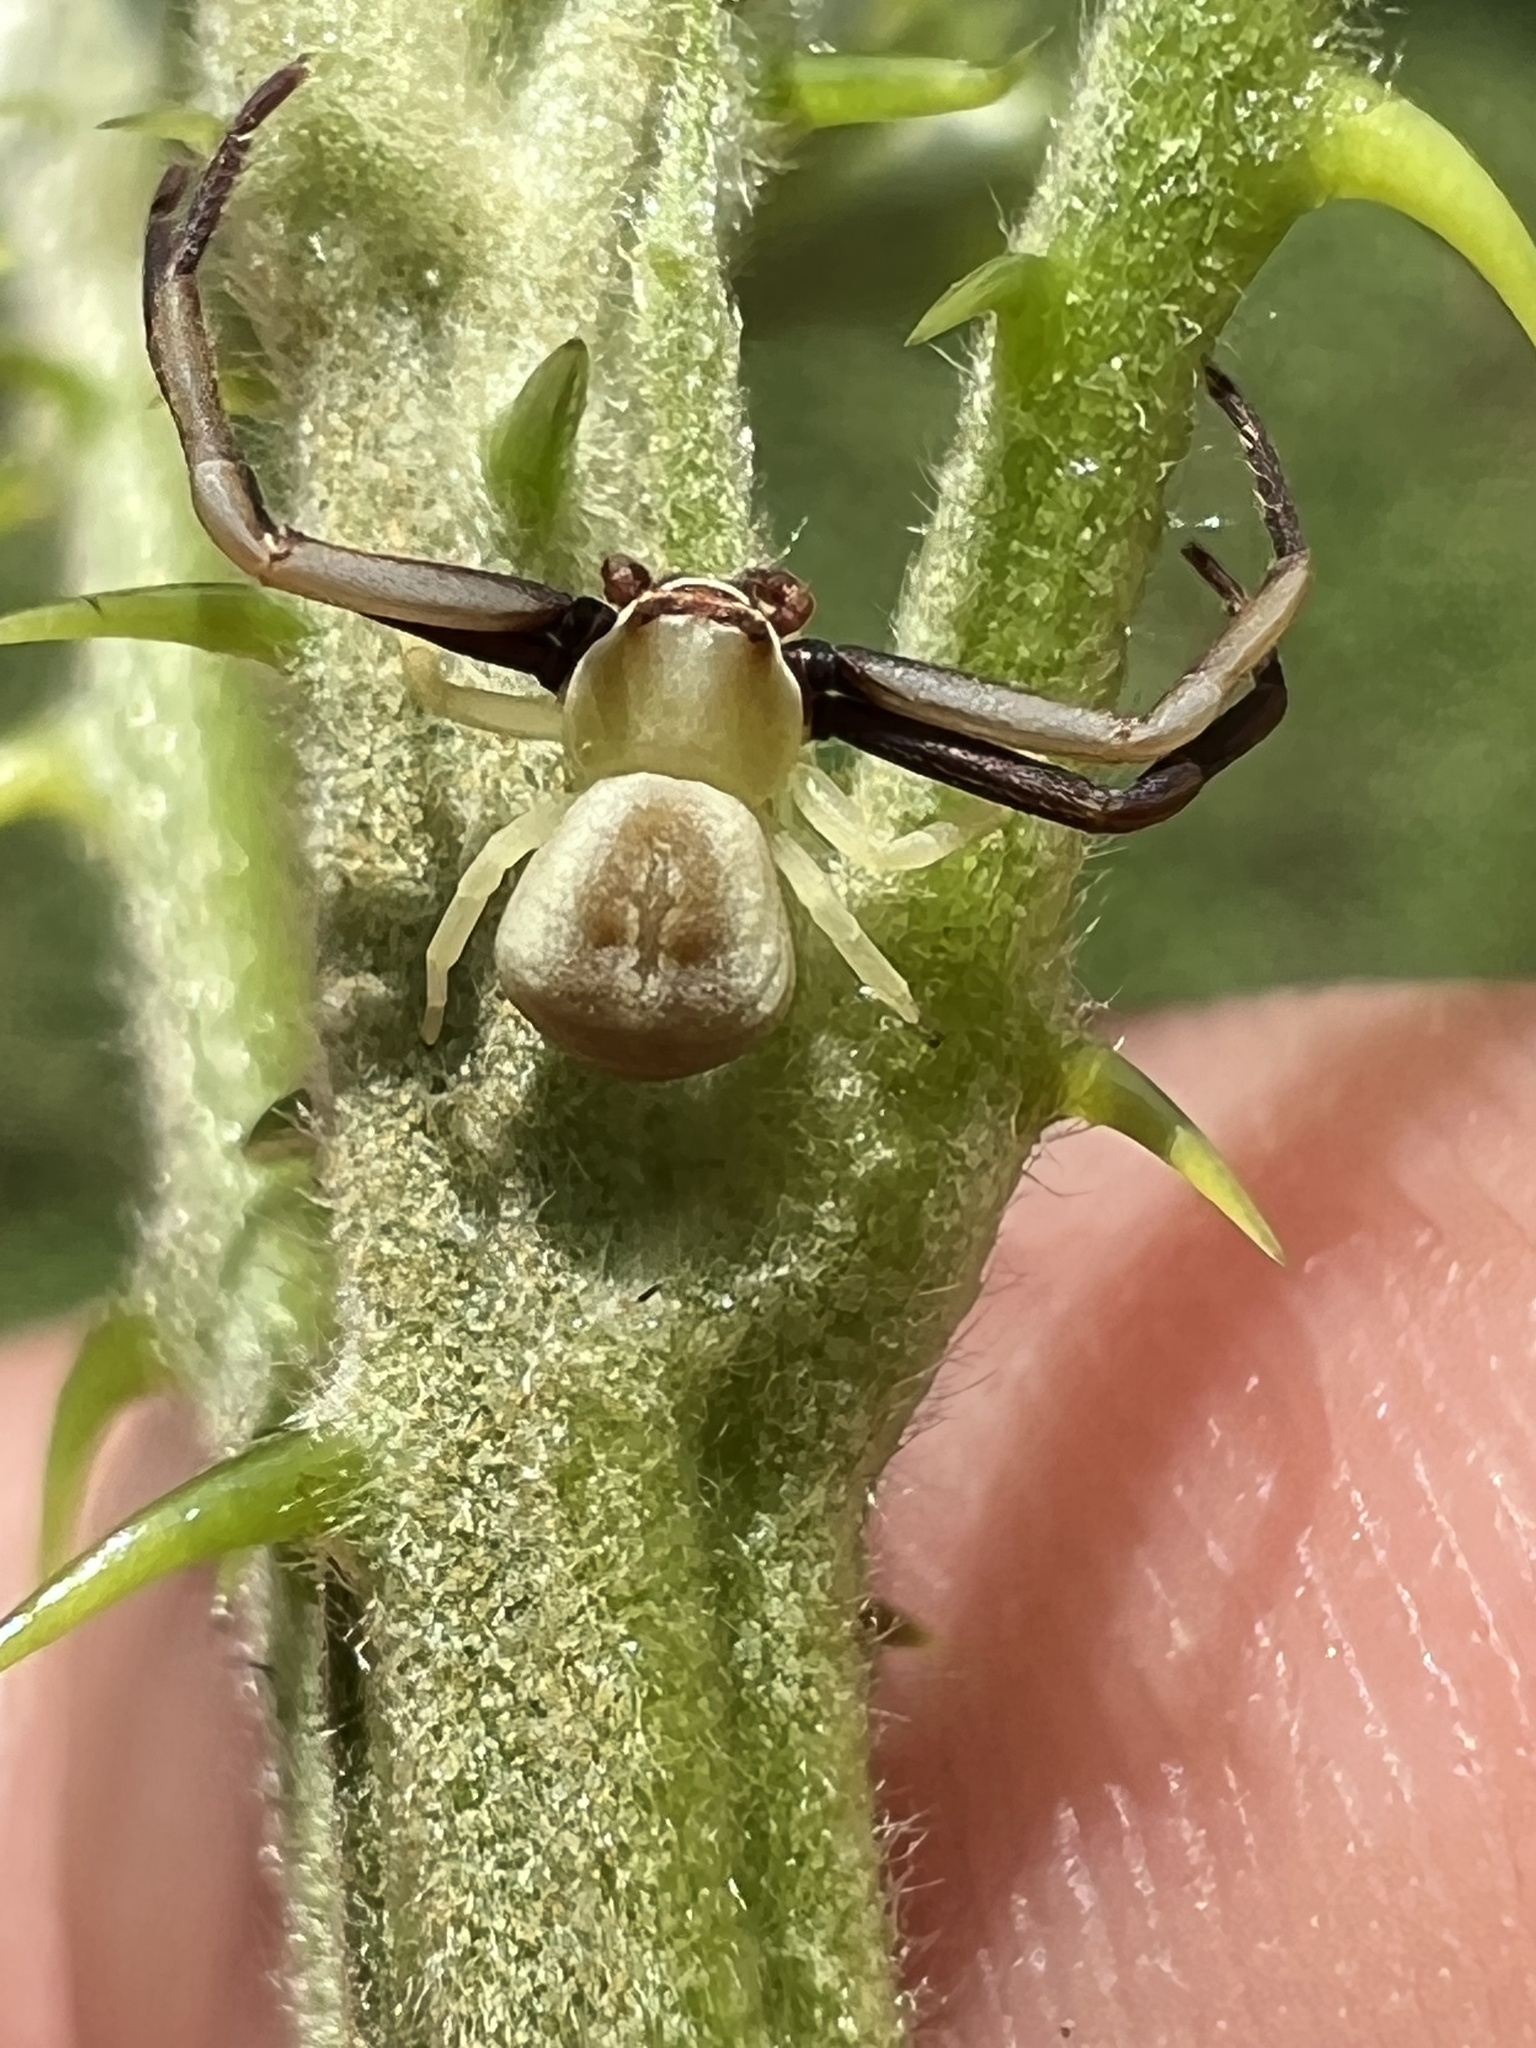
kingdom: Animalia
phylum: Arthropoda
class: Arachnida
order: Araneae
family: Thomisidae
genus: Misumenoides
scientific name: Misumenoides formosipes
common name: White-banded crab spider
